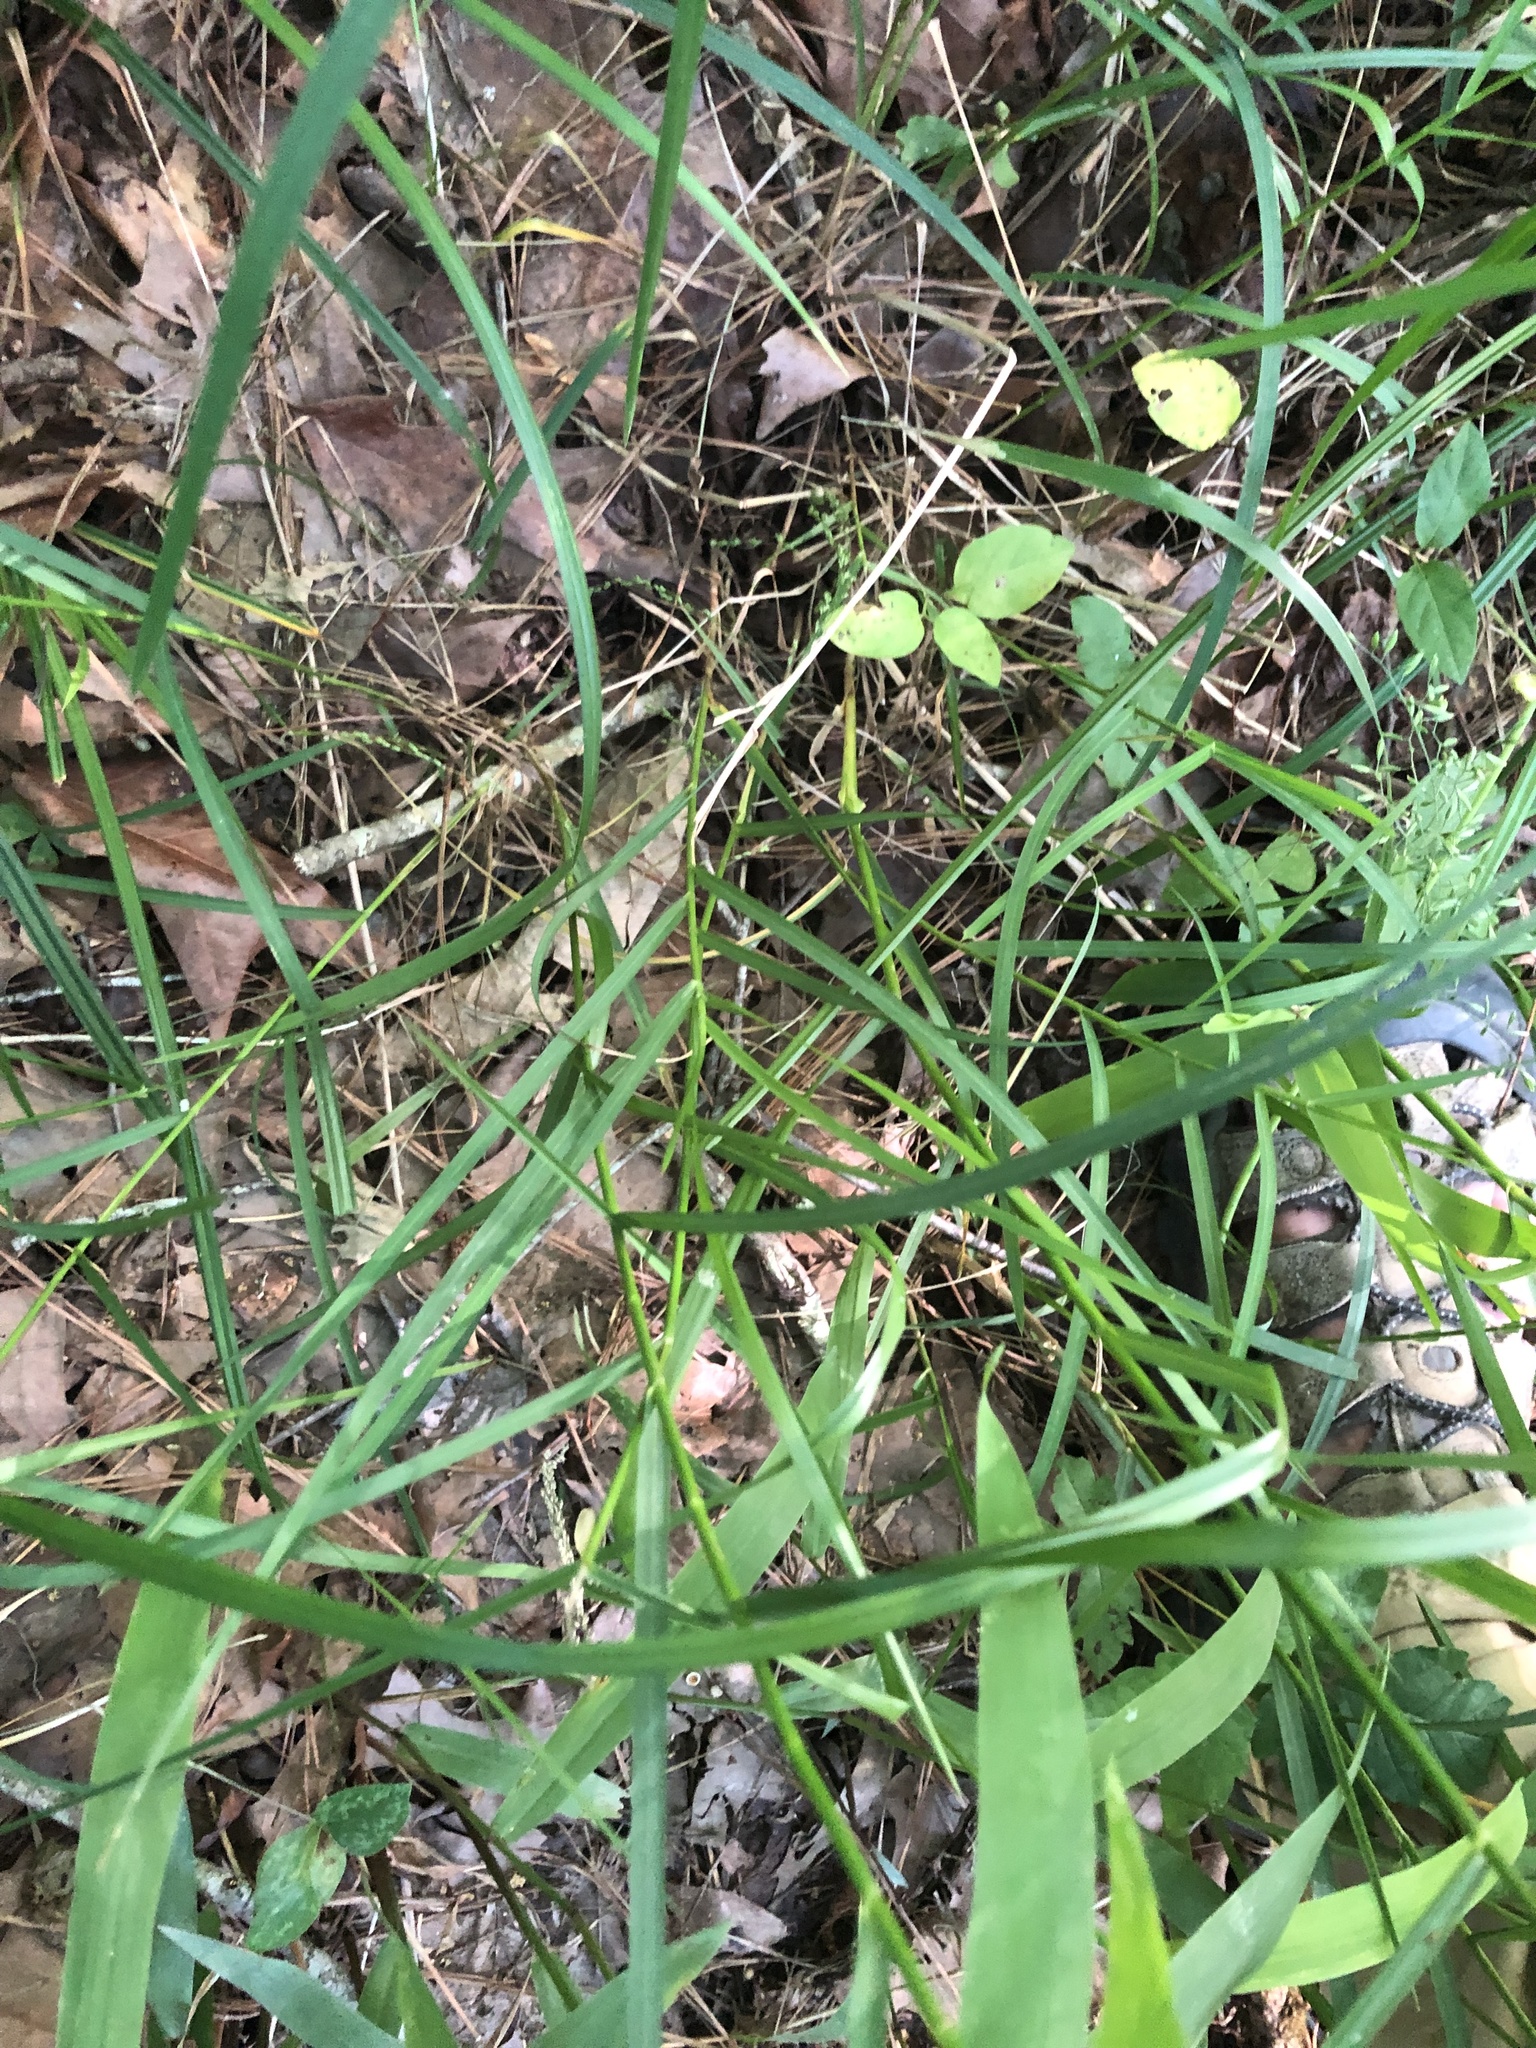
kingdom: Plantae
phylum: Tracheophyta
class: Liliopsida
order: Poales
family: Poaceae
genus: Festuca
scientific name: Festuca paradoxa
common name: Cluster fescue
